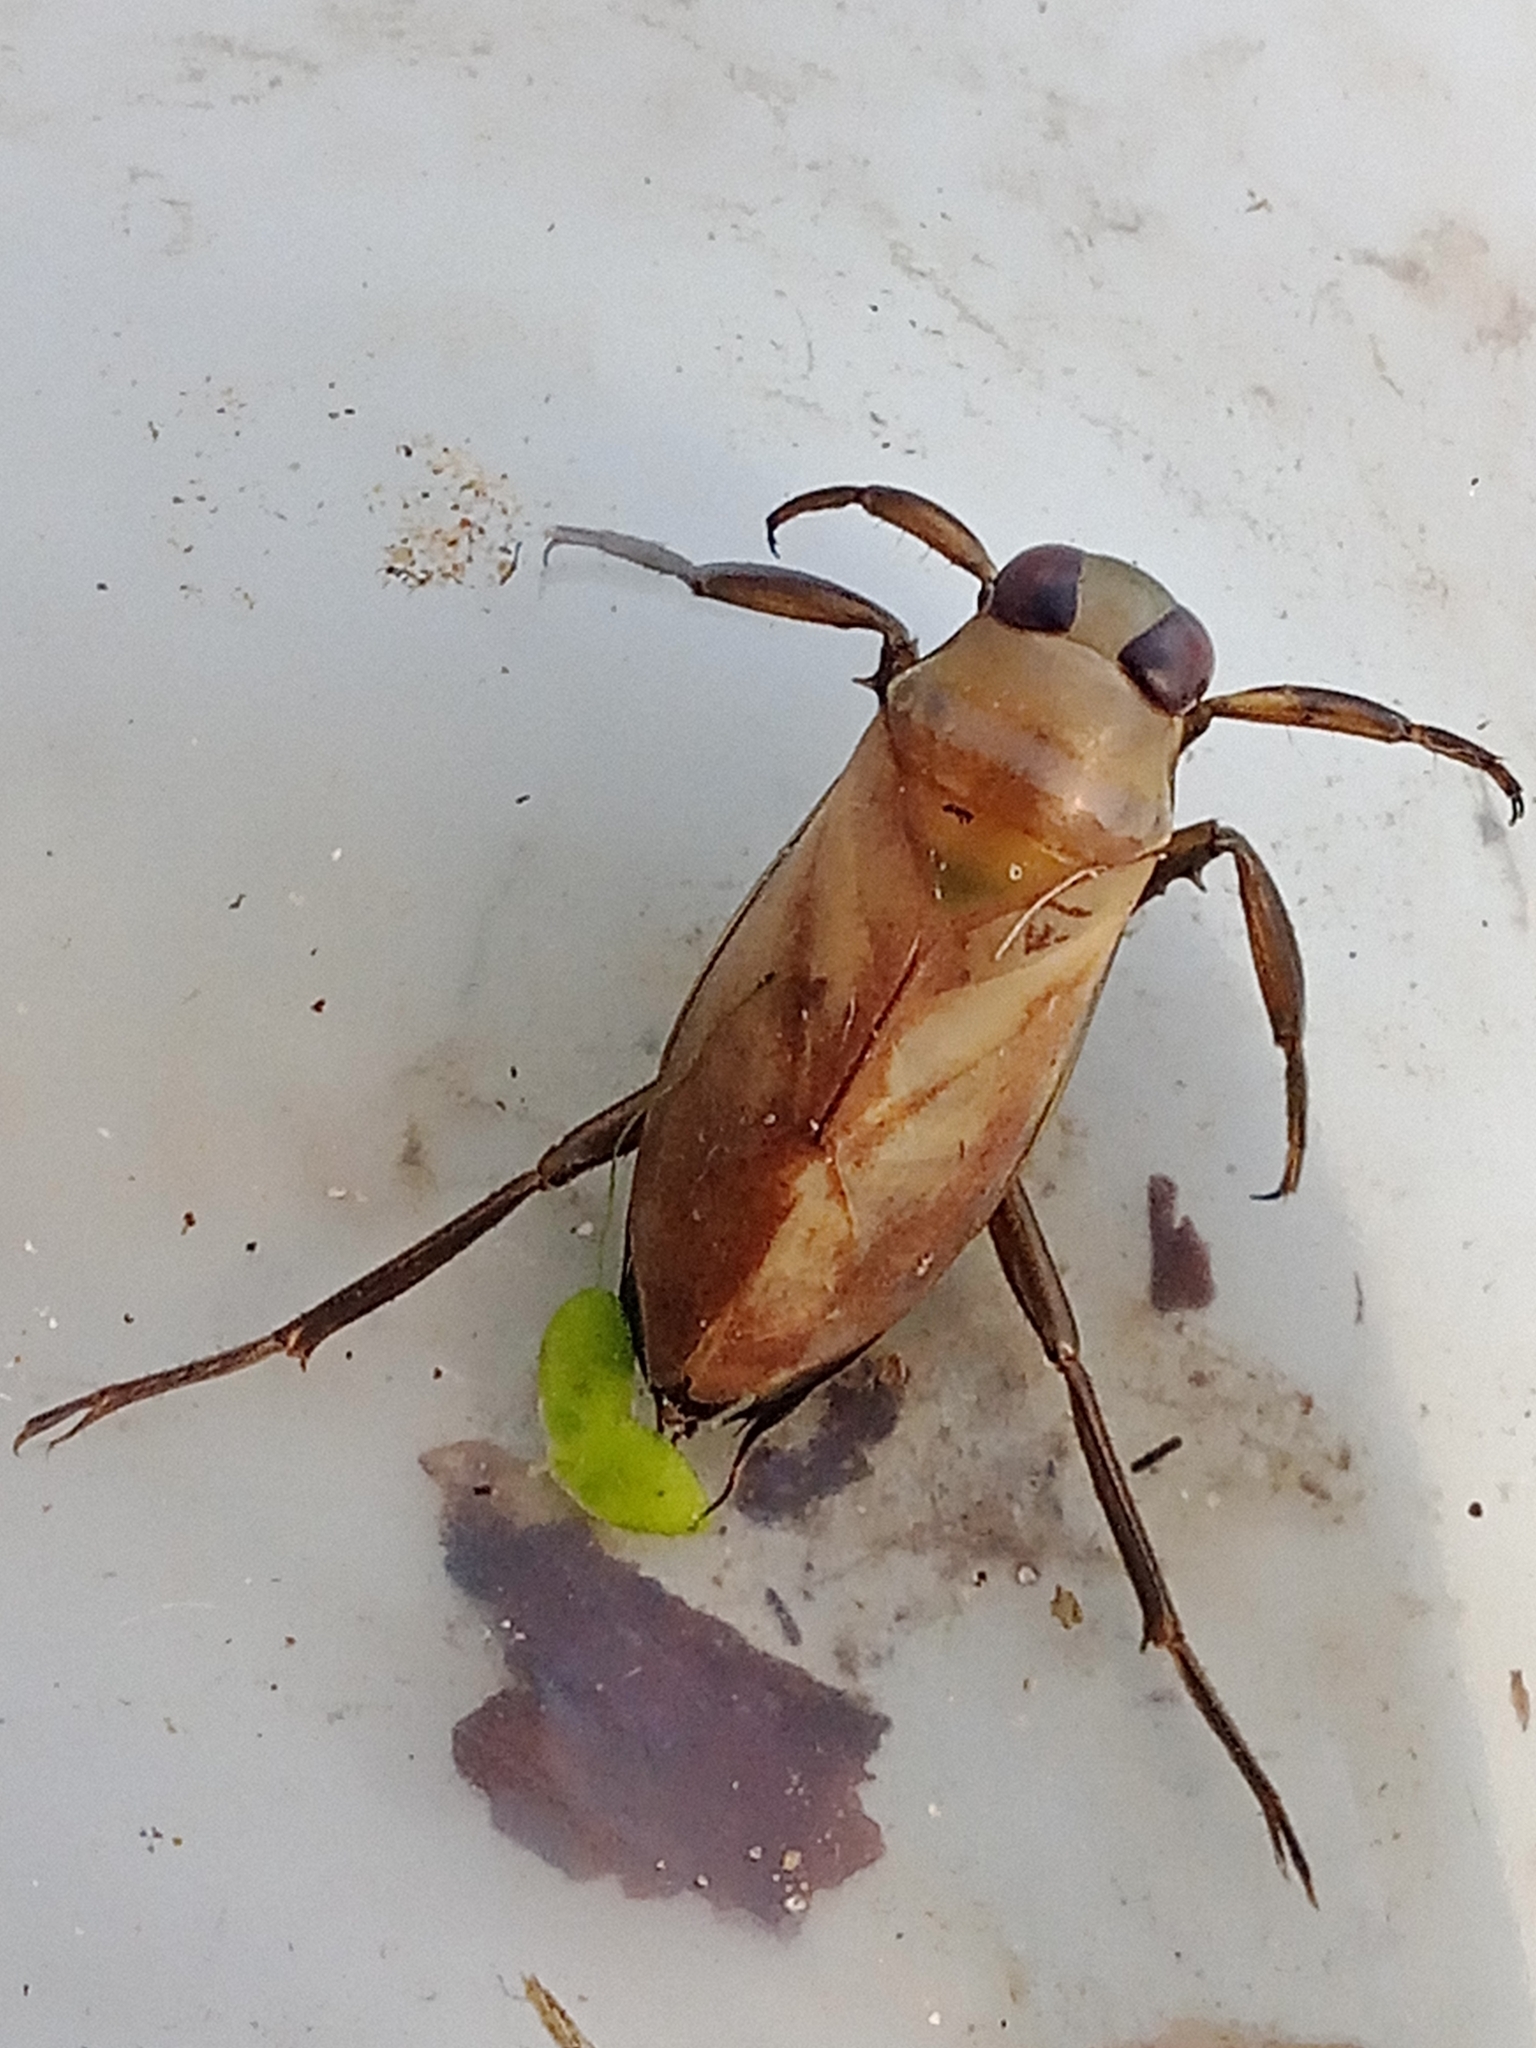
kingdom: Animalia
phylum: Arthropoda
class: Insecta
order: Hemiptera
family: Notonectidae
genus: Notonecta
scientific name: Notonecta reuteri
